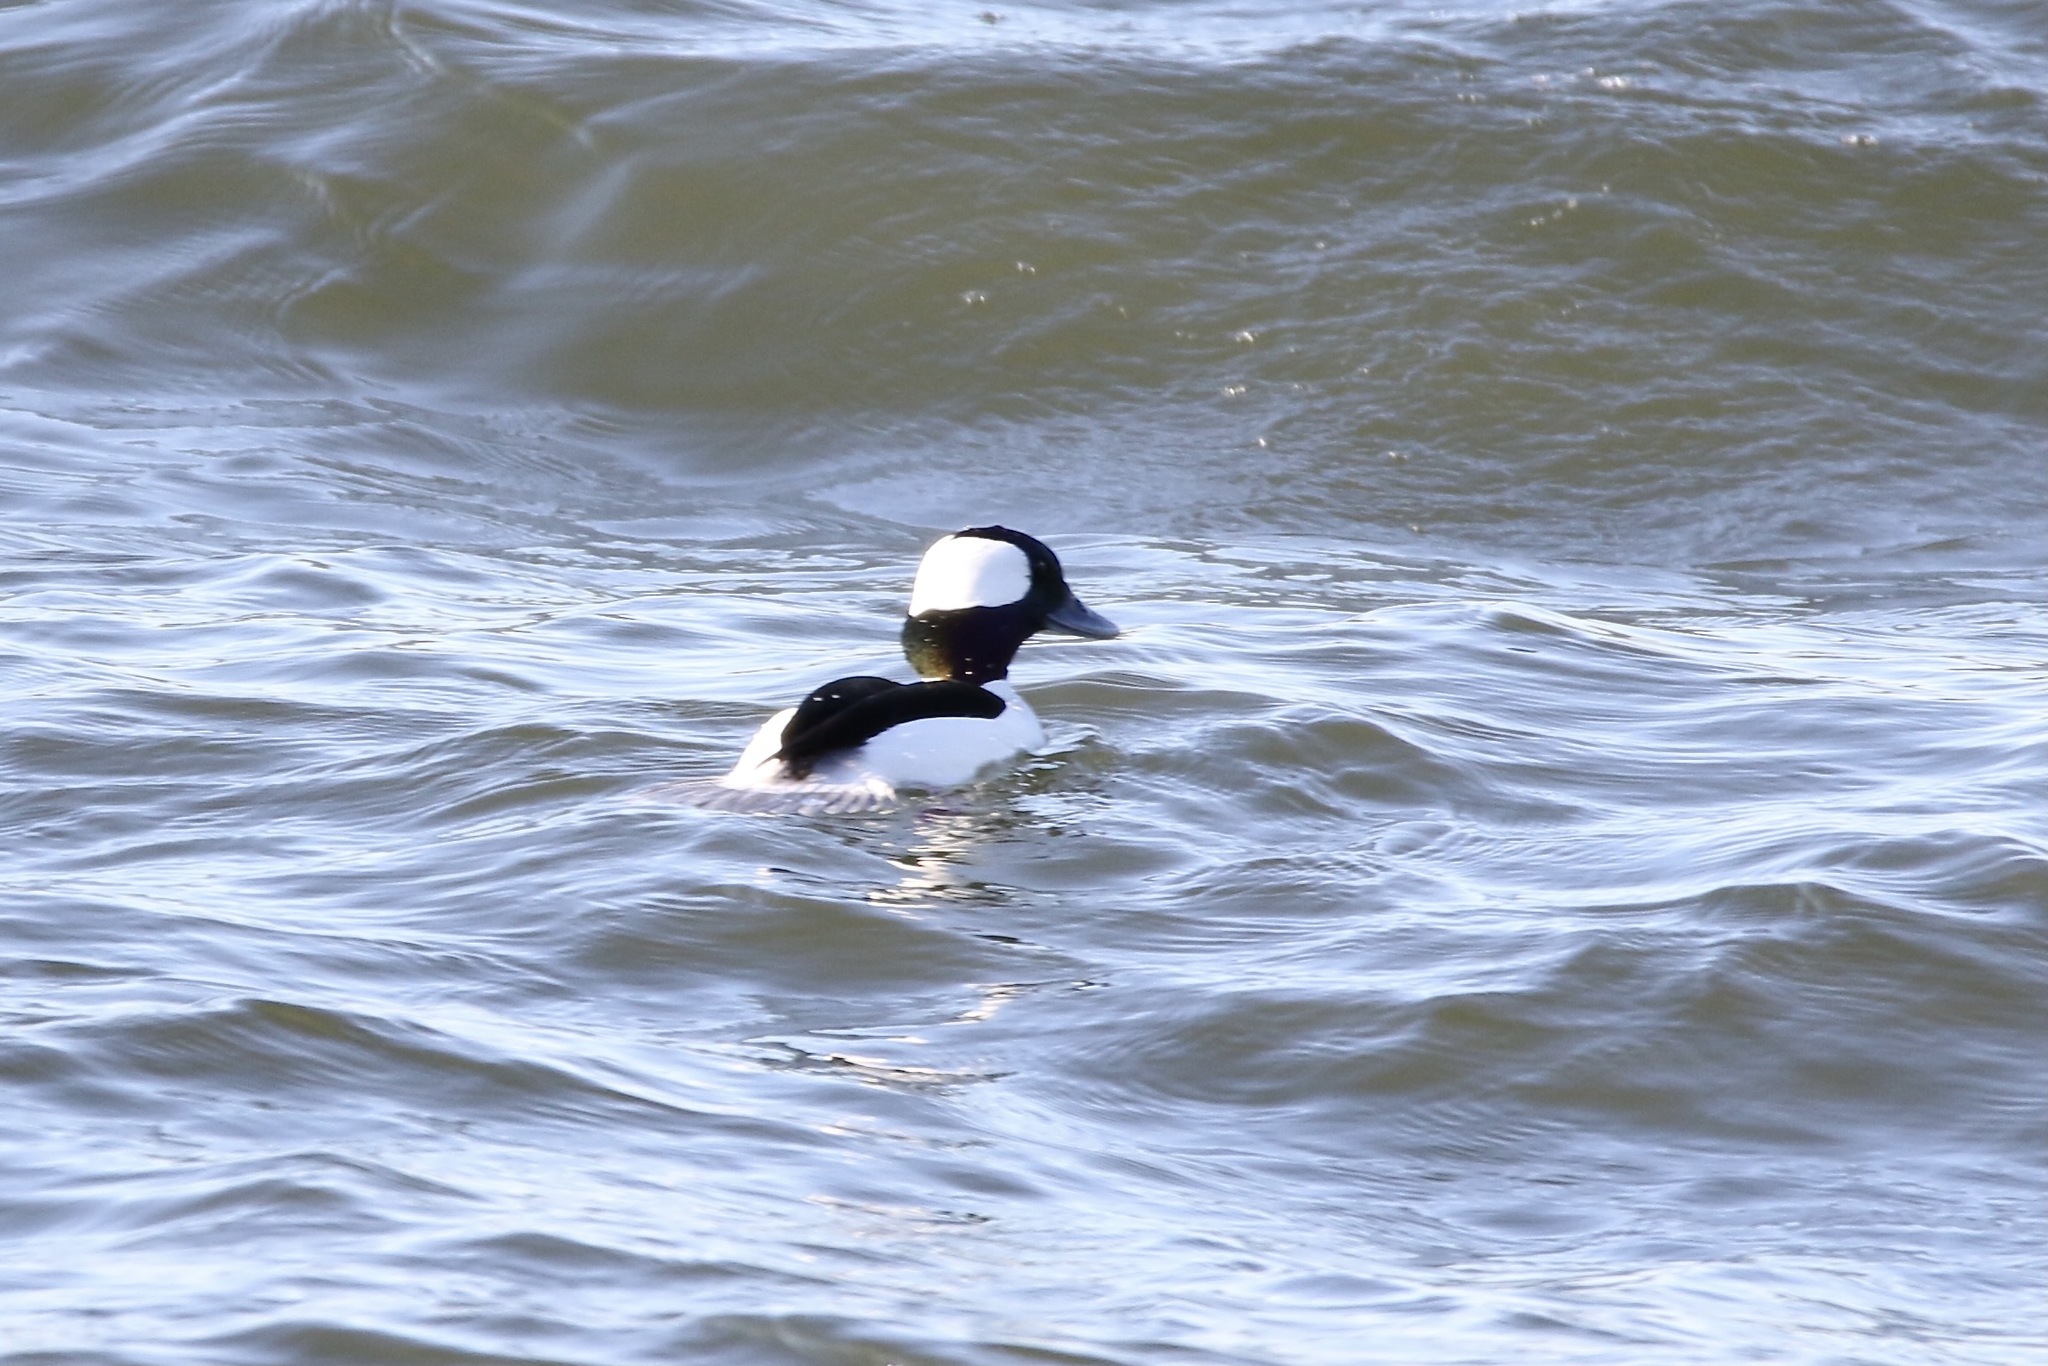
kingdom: Animalia
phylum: Chordata
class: Aves
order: Anseriformes
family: Anatidae
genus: Bucephala
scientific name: Bucephala albeola
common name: Bufflehead
